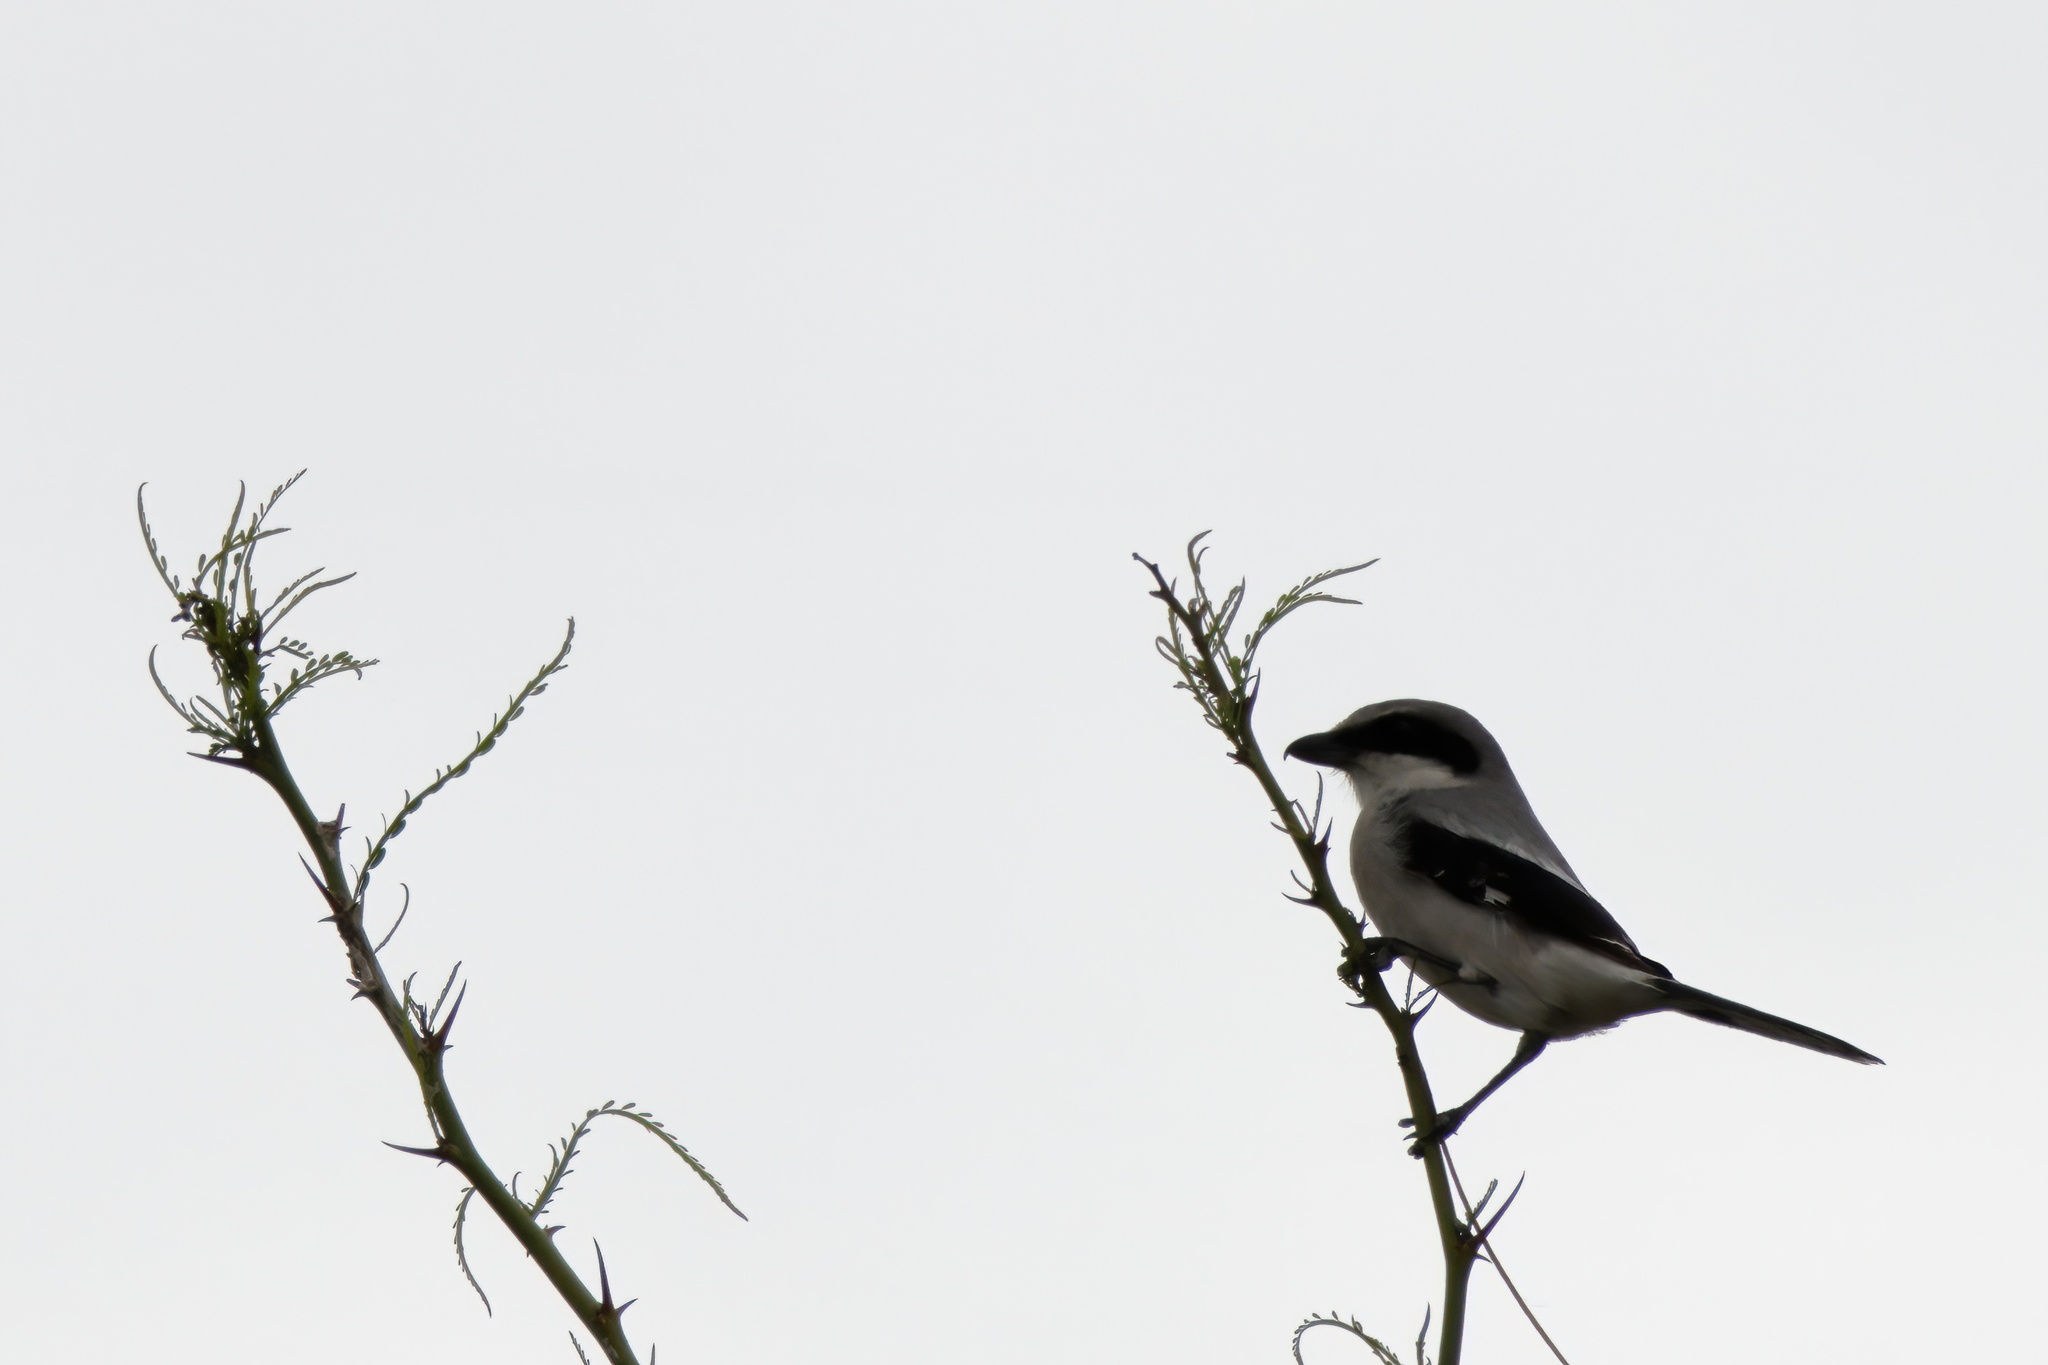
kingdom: Animalia
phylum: Chordata
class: Aves
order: Passeriformes
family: Laniidae
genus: Lanius
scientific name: Lanius ludovicianus
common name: Loggerhead shrike
